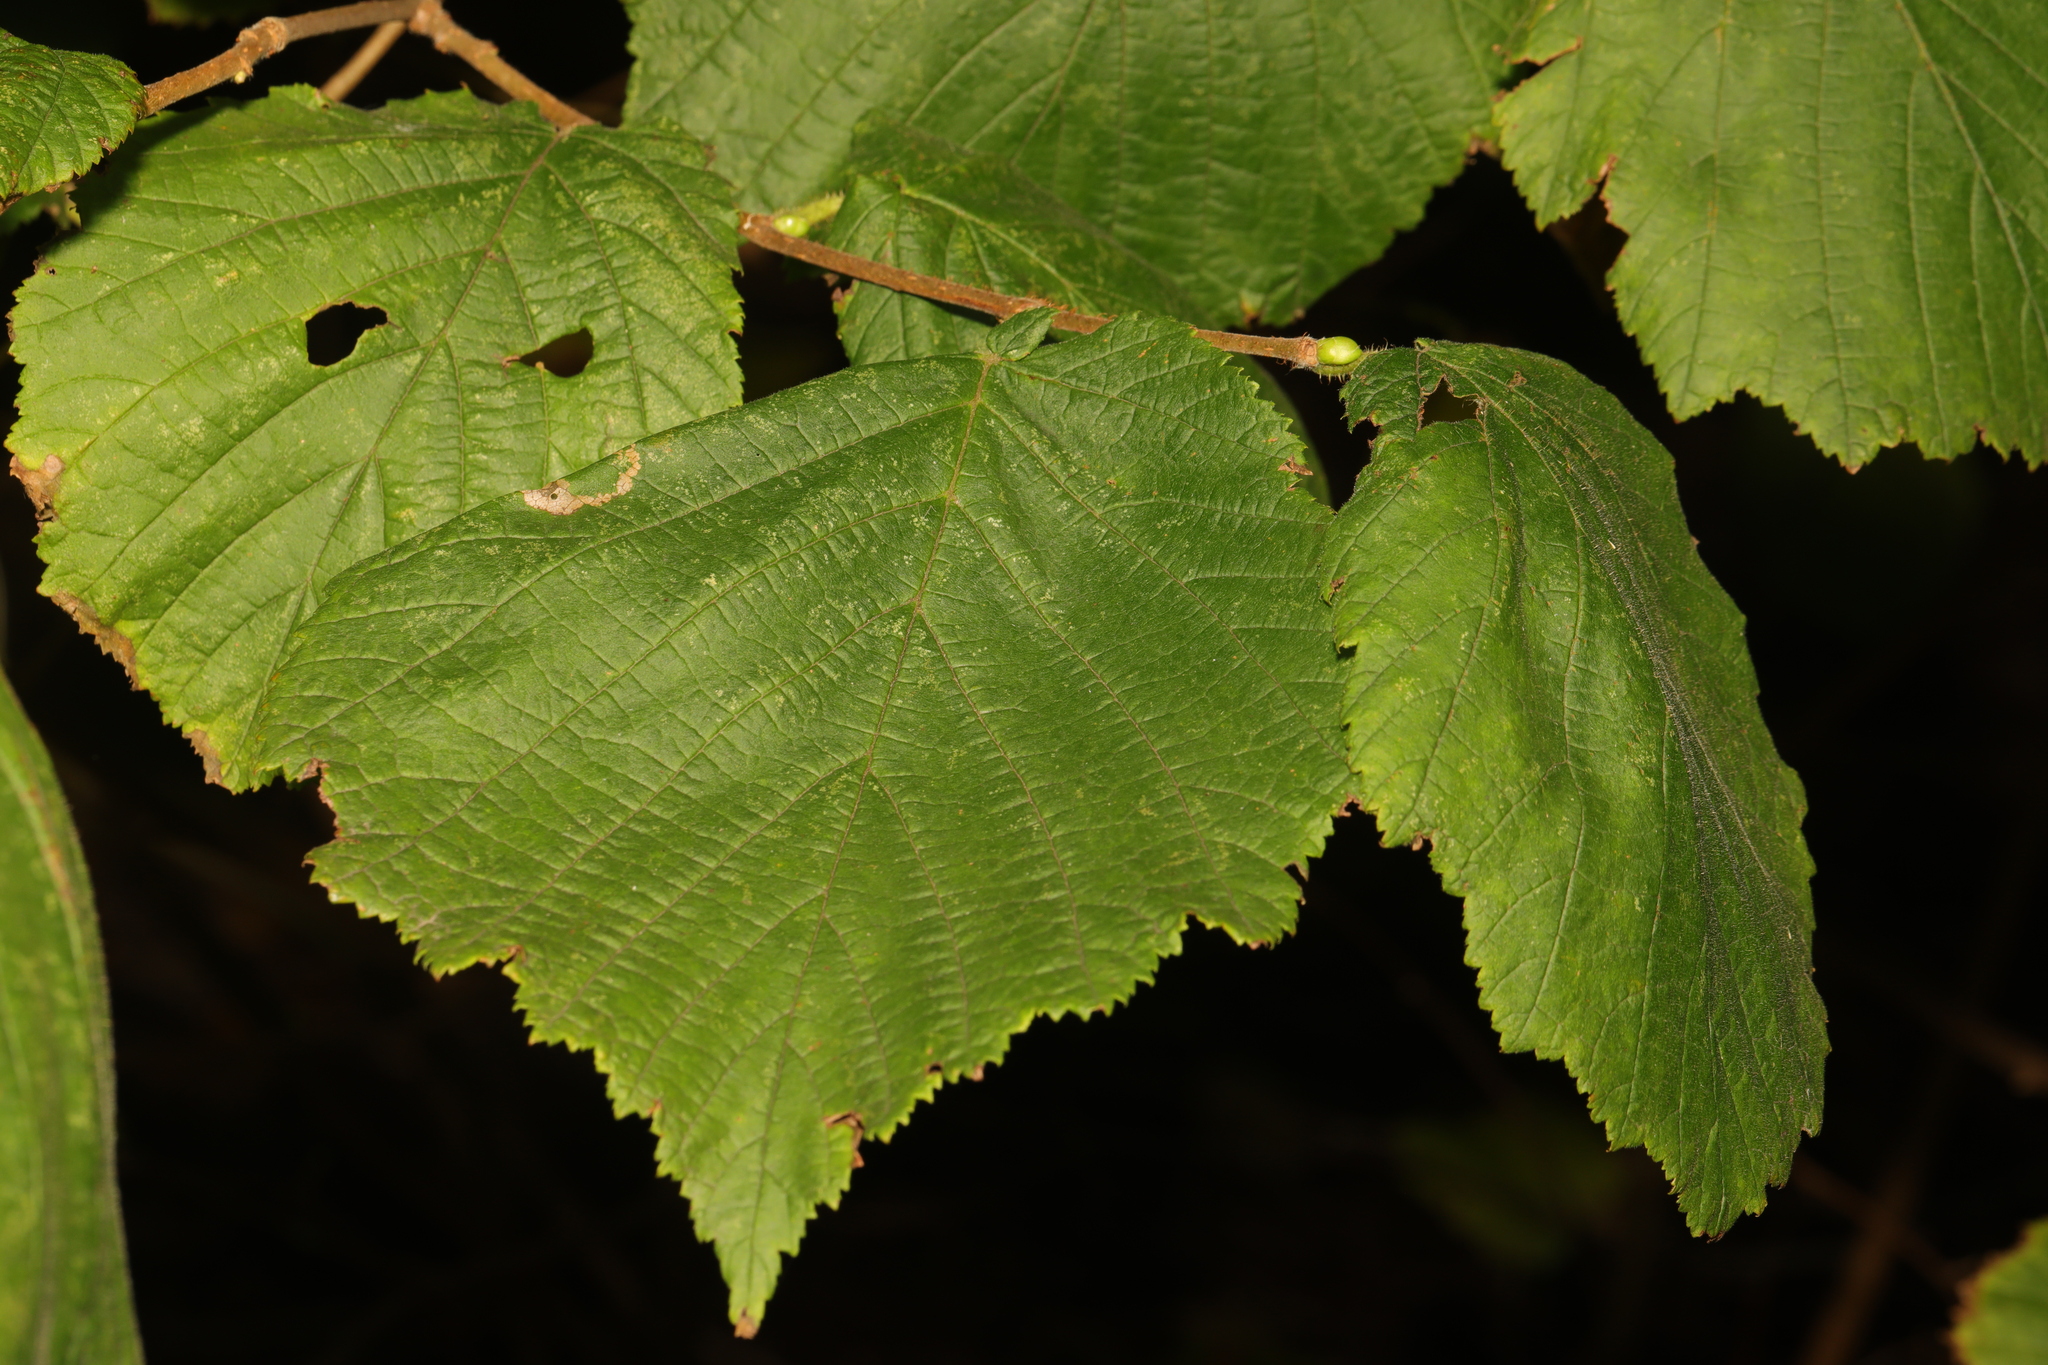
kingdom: Plantae
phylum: Tracheophyta
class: Magnoliopsida
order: Fagales
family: Betulaceae
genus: Corylus
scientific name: Corylus avellana
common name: European hazel
